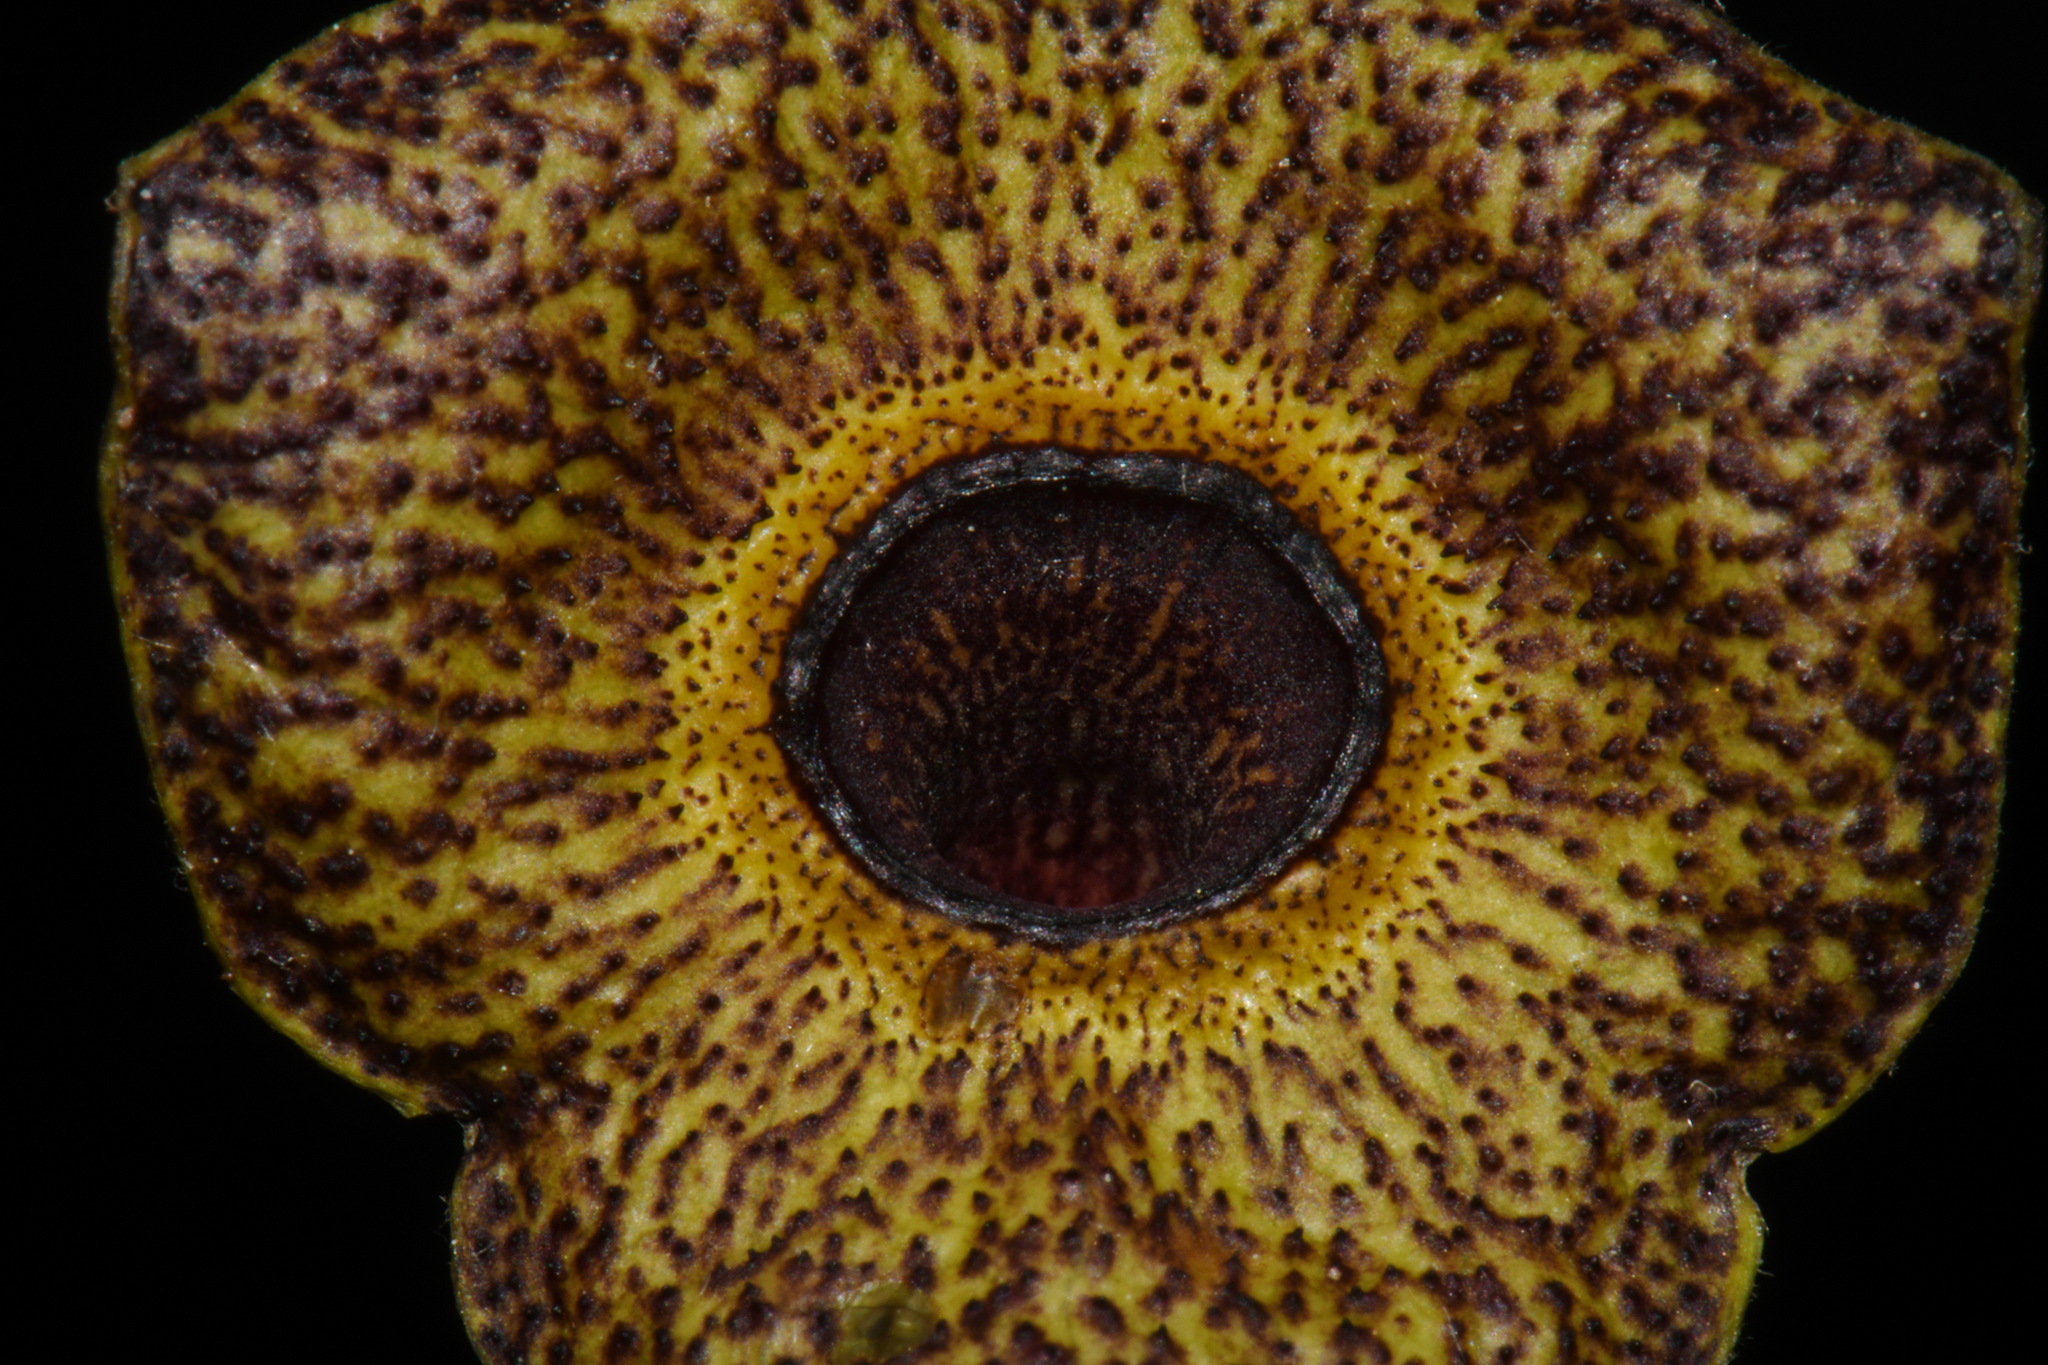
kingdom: Plantae
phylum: Tracheophyta
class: Magnoliopsida
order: Piperales
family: Aristolochiaceae
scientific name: Aristolochiaceae
